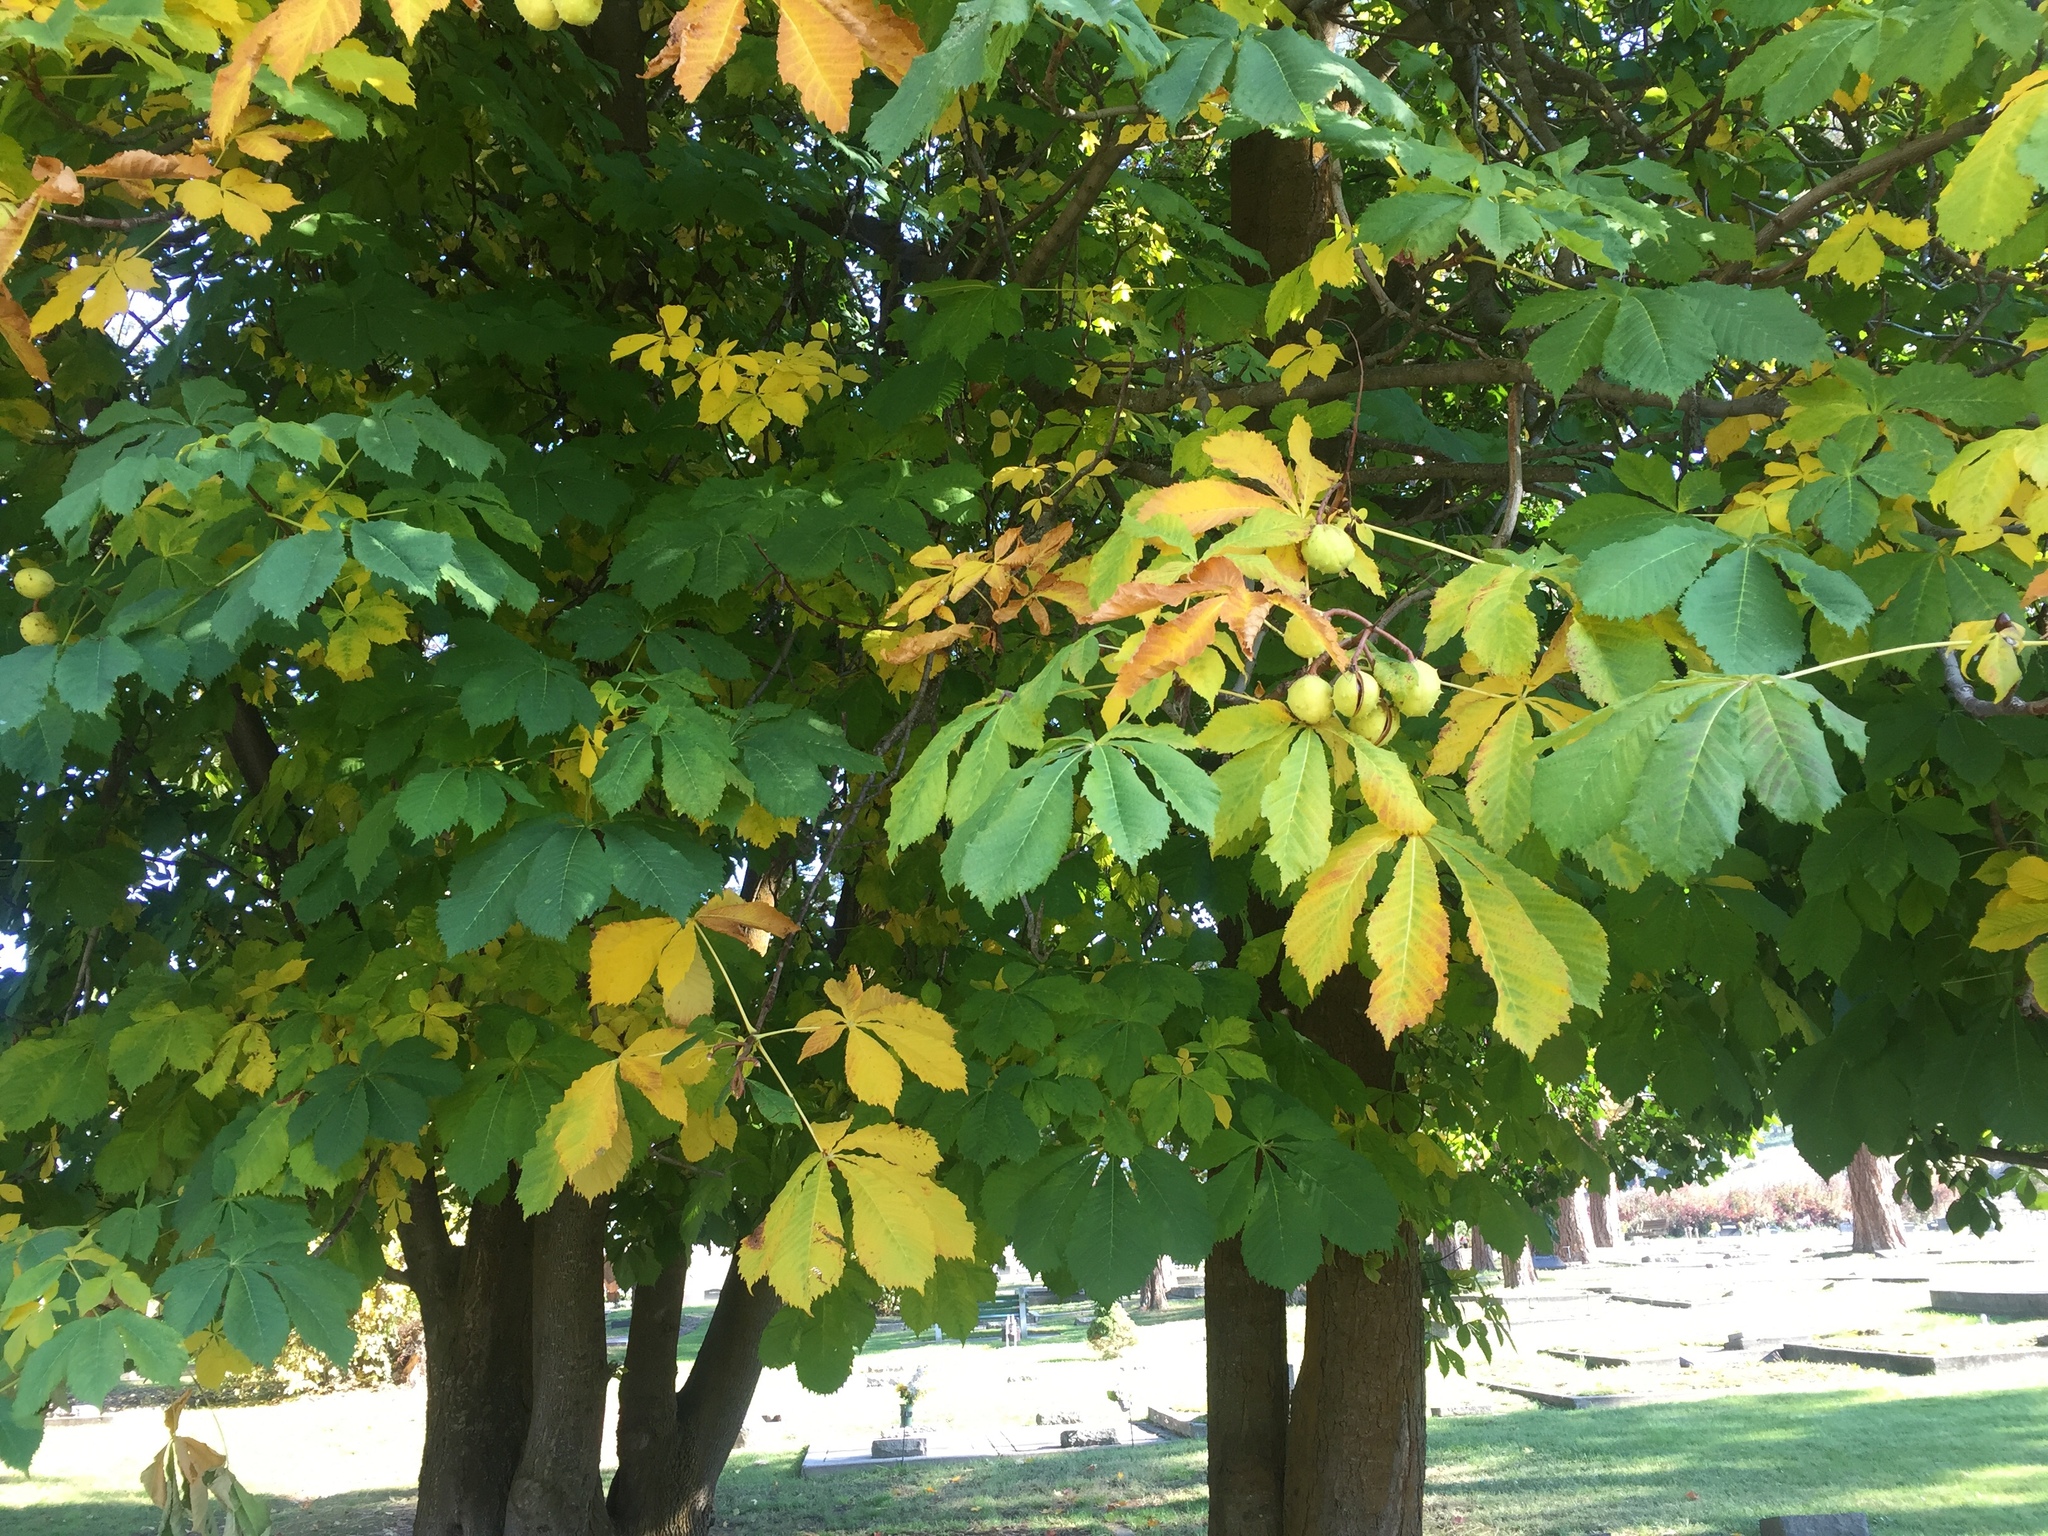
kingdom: Plantae
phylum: Tracheophyta
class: Magnoliopsida
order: Sapindales
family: Sapindaceae
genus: Aesculus
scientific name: Aesculus hippocastanum
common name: Horse-chestnut
